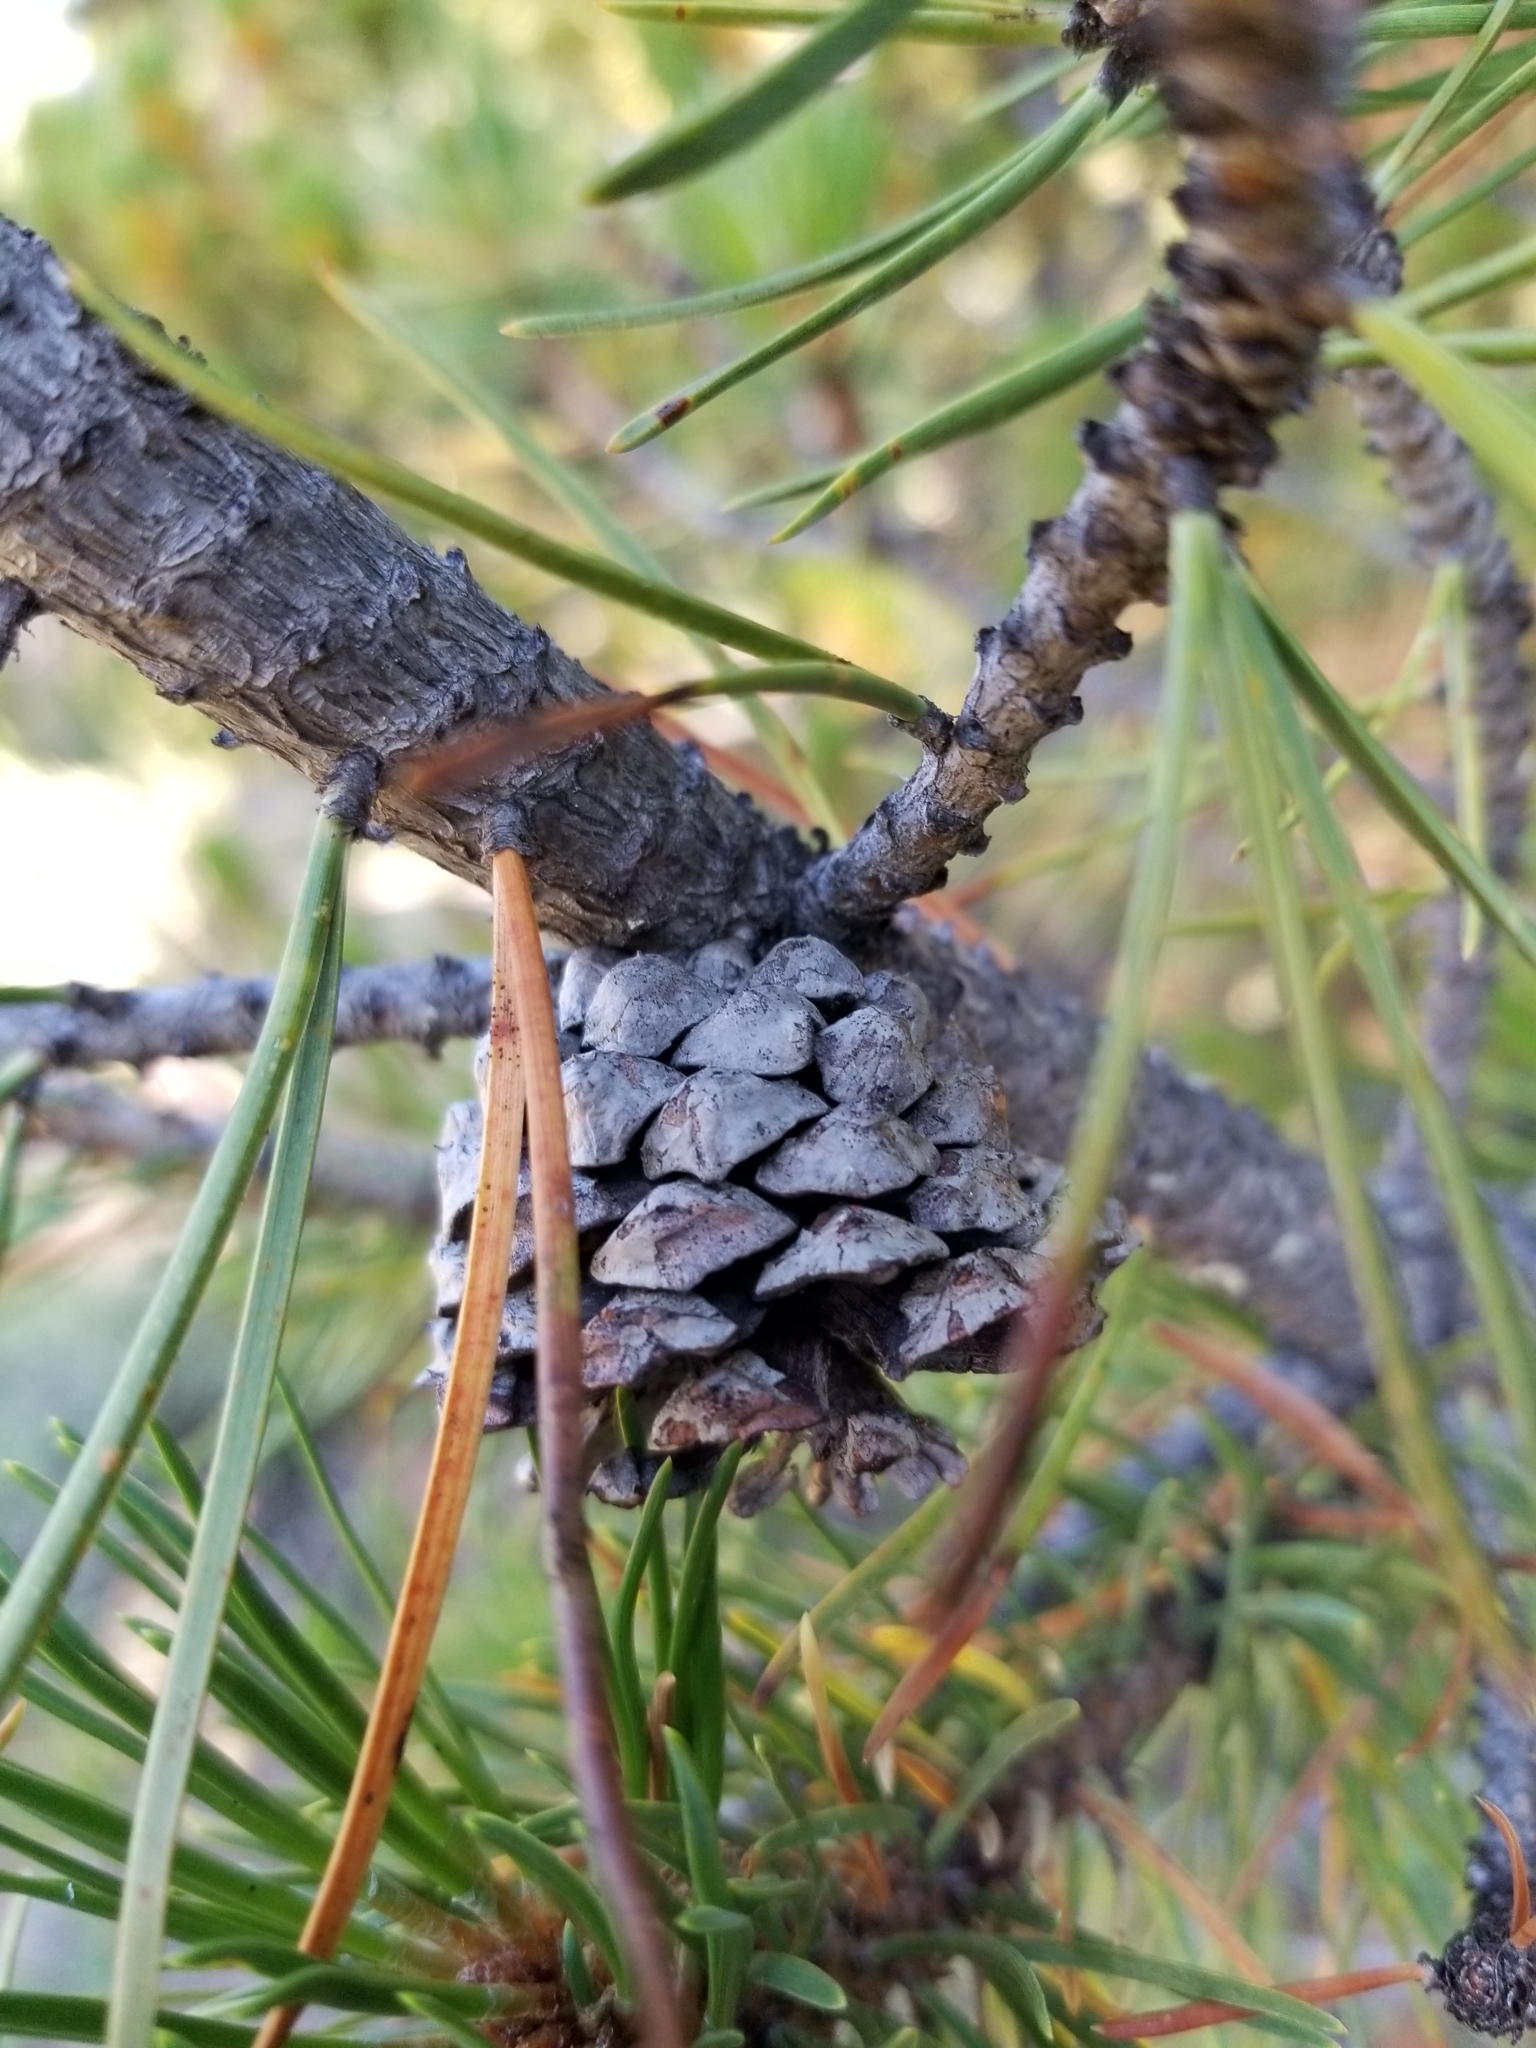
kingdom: Plantae
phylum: Tracheophyta
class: Pinopsida
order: Pinales
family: Pinaceae
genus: Pinus
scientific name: Pinus contorta
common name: Lodgepole pine
